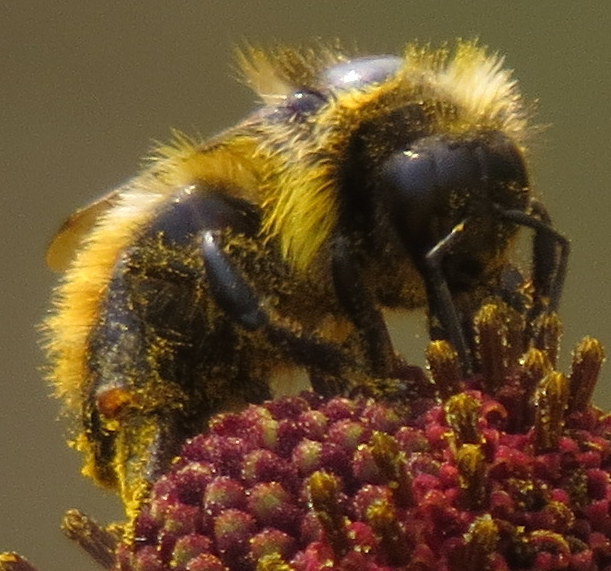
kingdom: Animalia
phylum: Arthropoda
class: Insecta
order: Hymenoptera
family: Apidae
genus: Bombus
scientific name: Bombus rufocinctus
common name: Red-belted bumble bee
